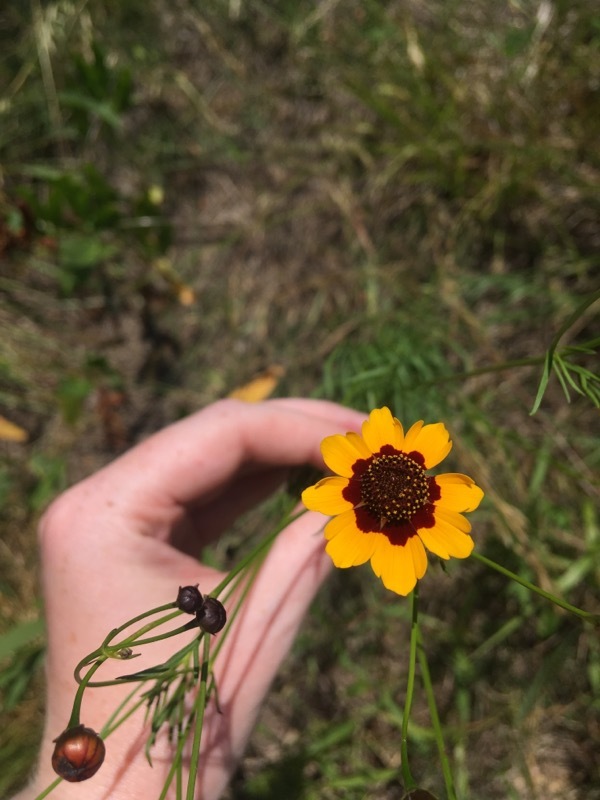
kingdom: Plantae
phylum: Tracheophyta
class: Magnoliopsida
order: Asterales
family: Asteraceae
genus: Coreopsis
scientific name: Coreopsis tinctoria
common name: Garden tickseed
